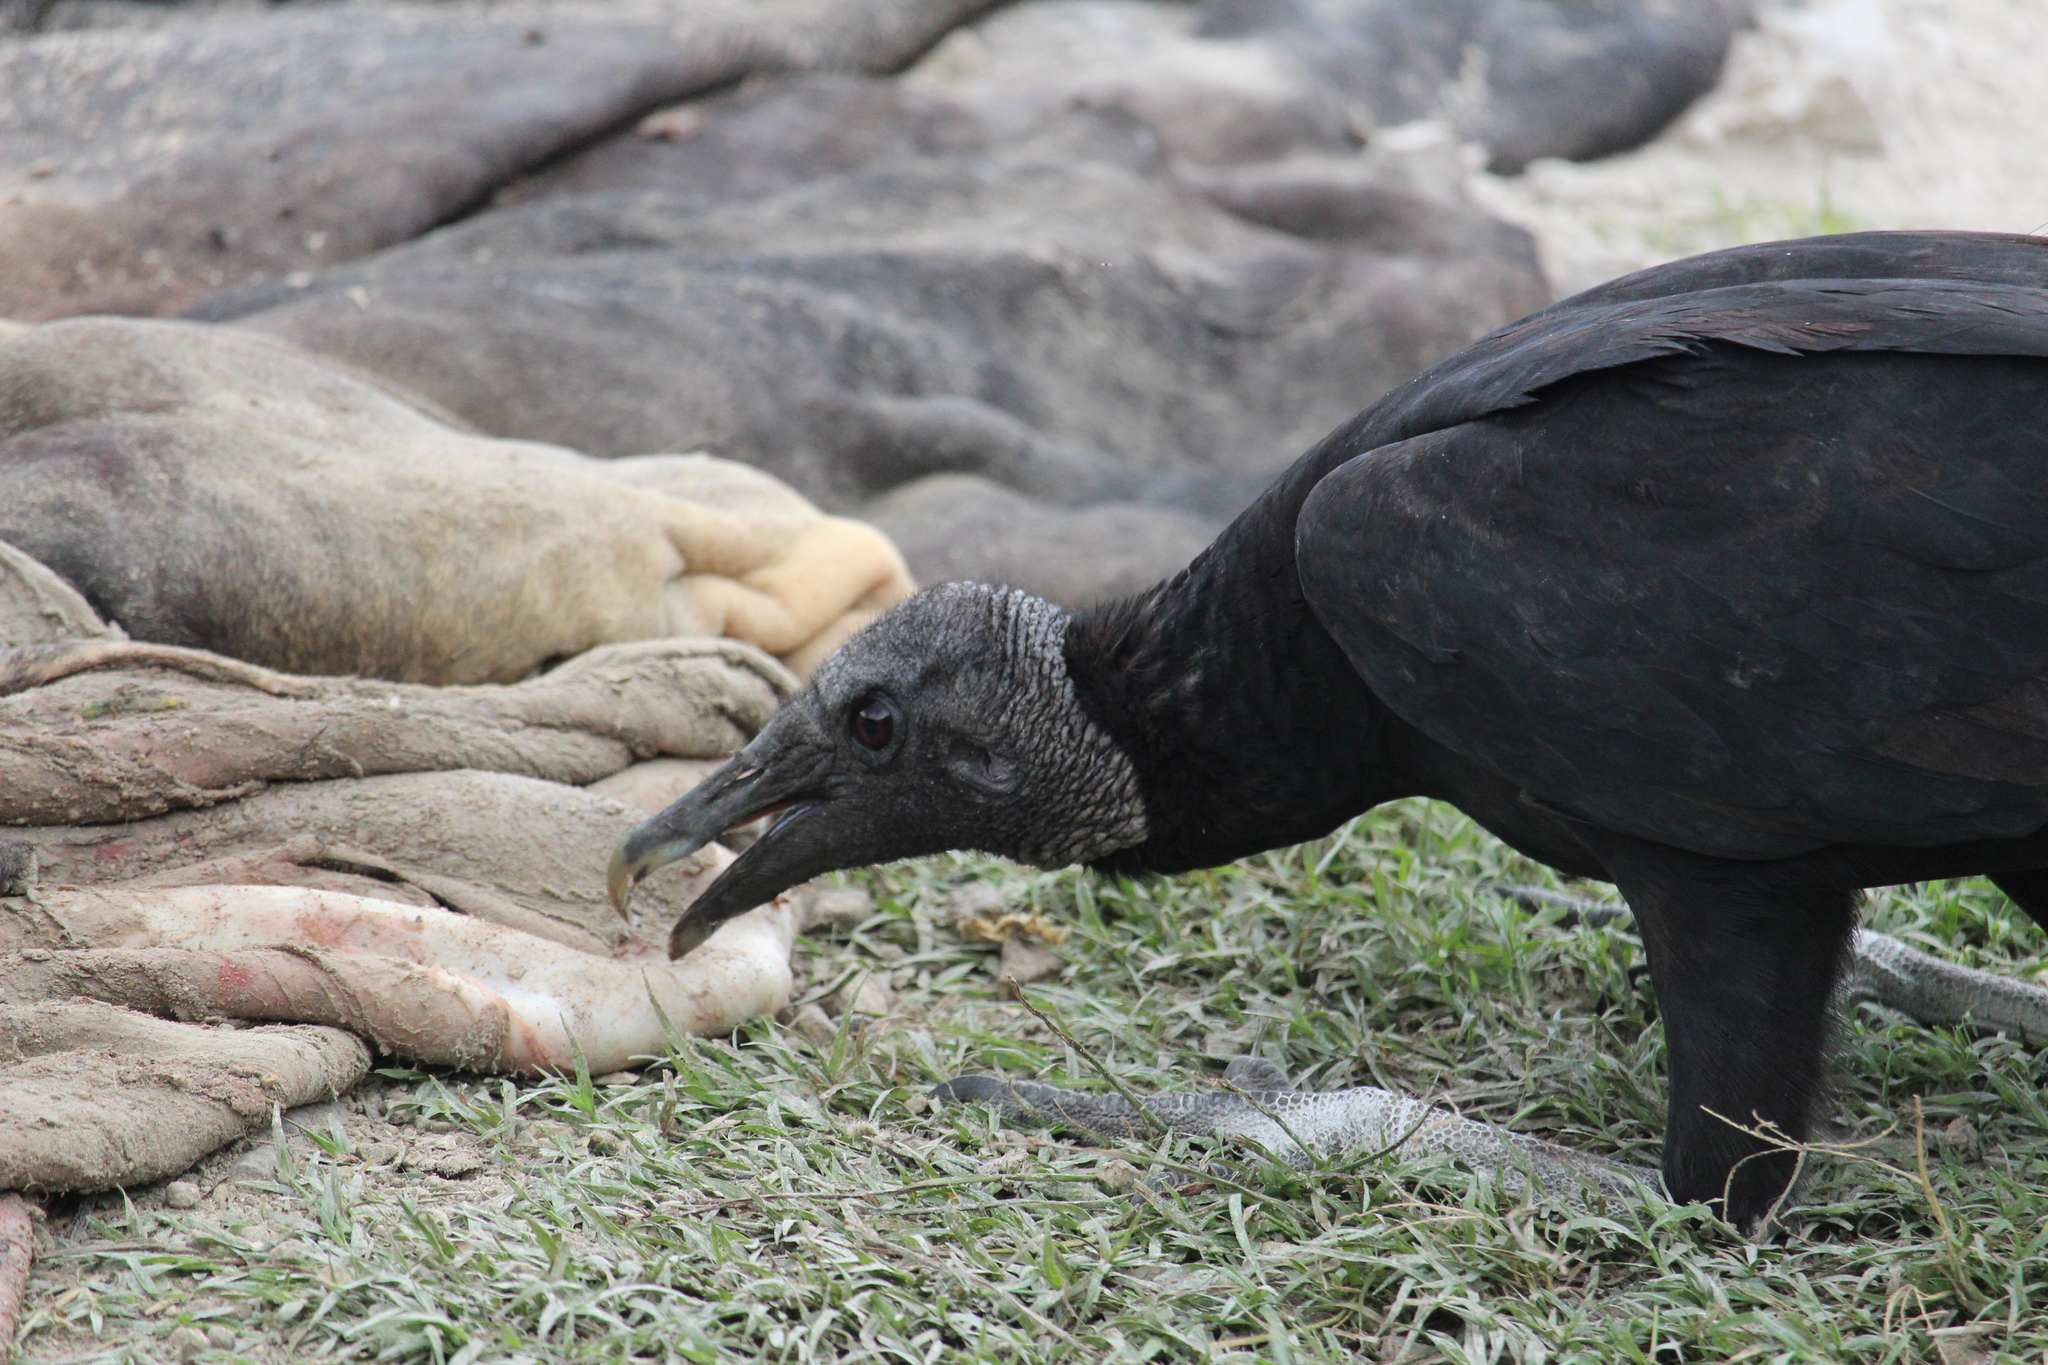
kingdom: Animalia
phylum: Chordata
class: Aves
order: Accipitriformes
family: Cathartidae
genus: Coragyps
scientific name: Coragyps atratus
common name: Black vulture
